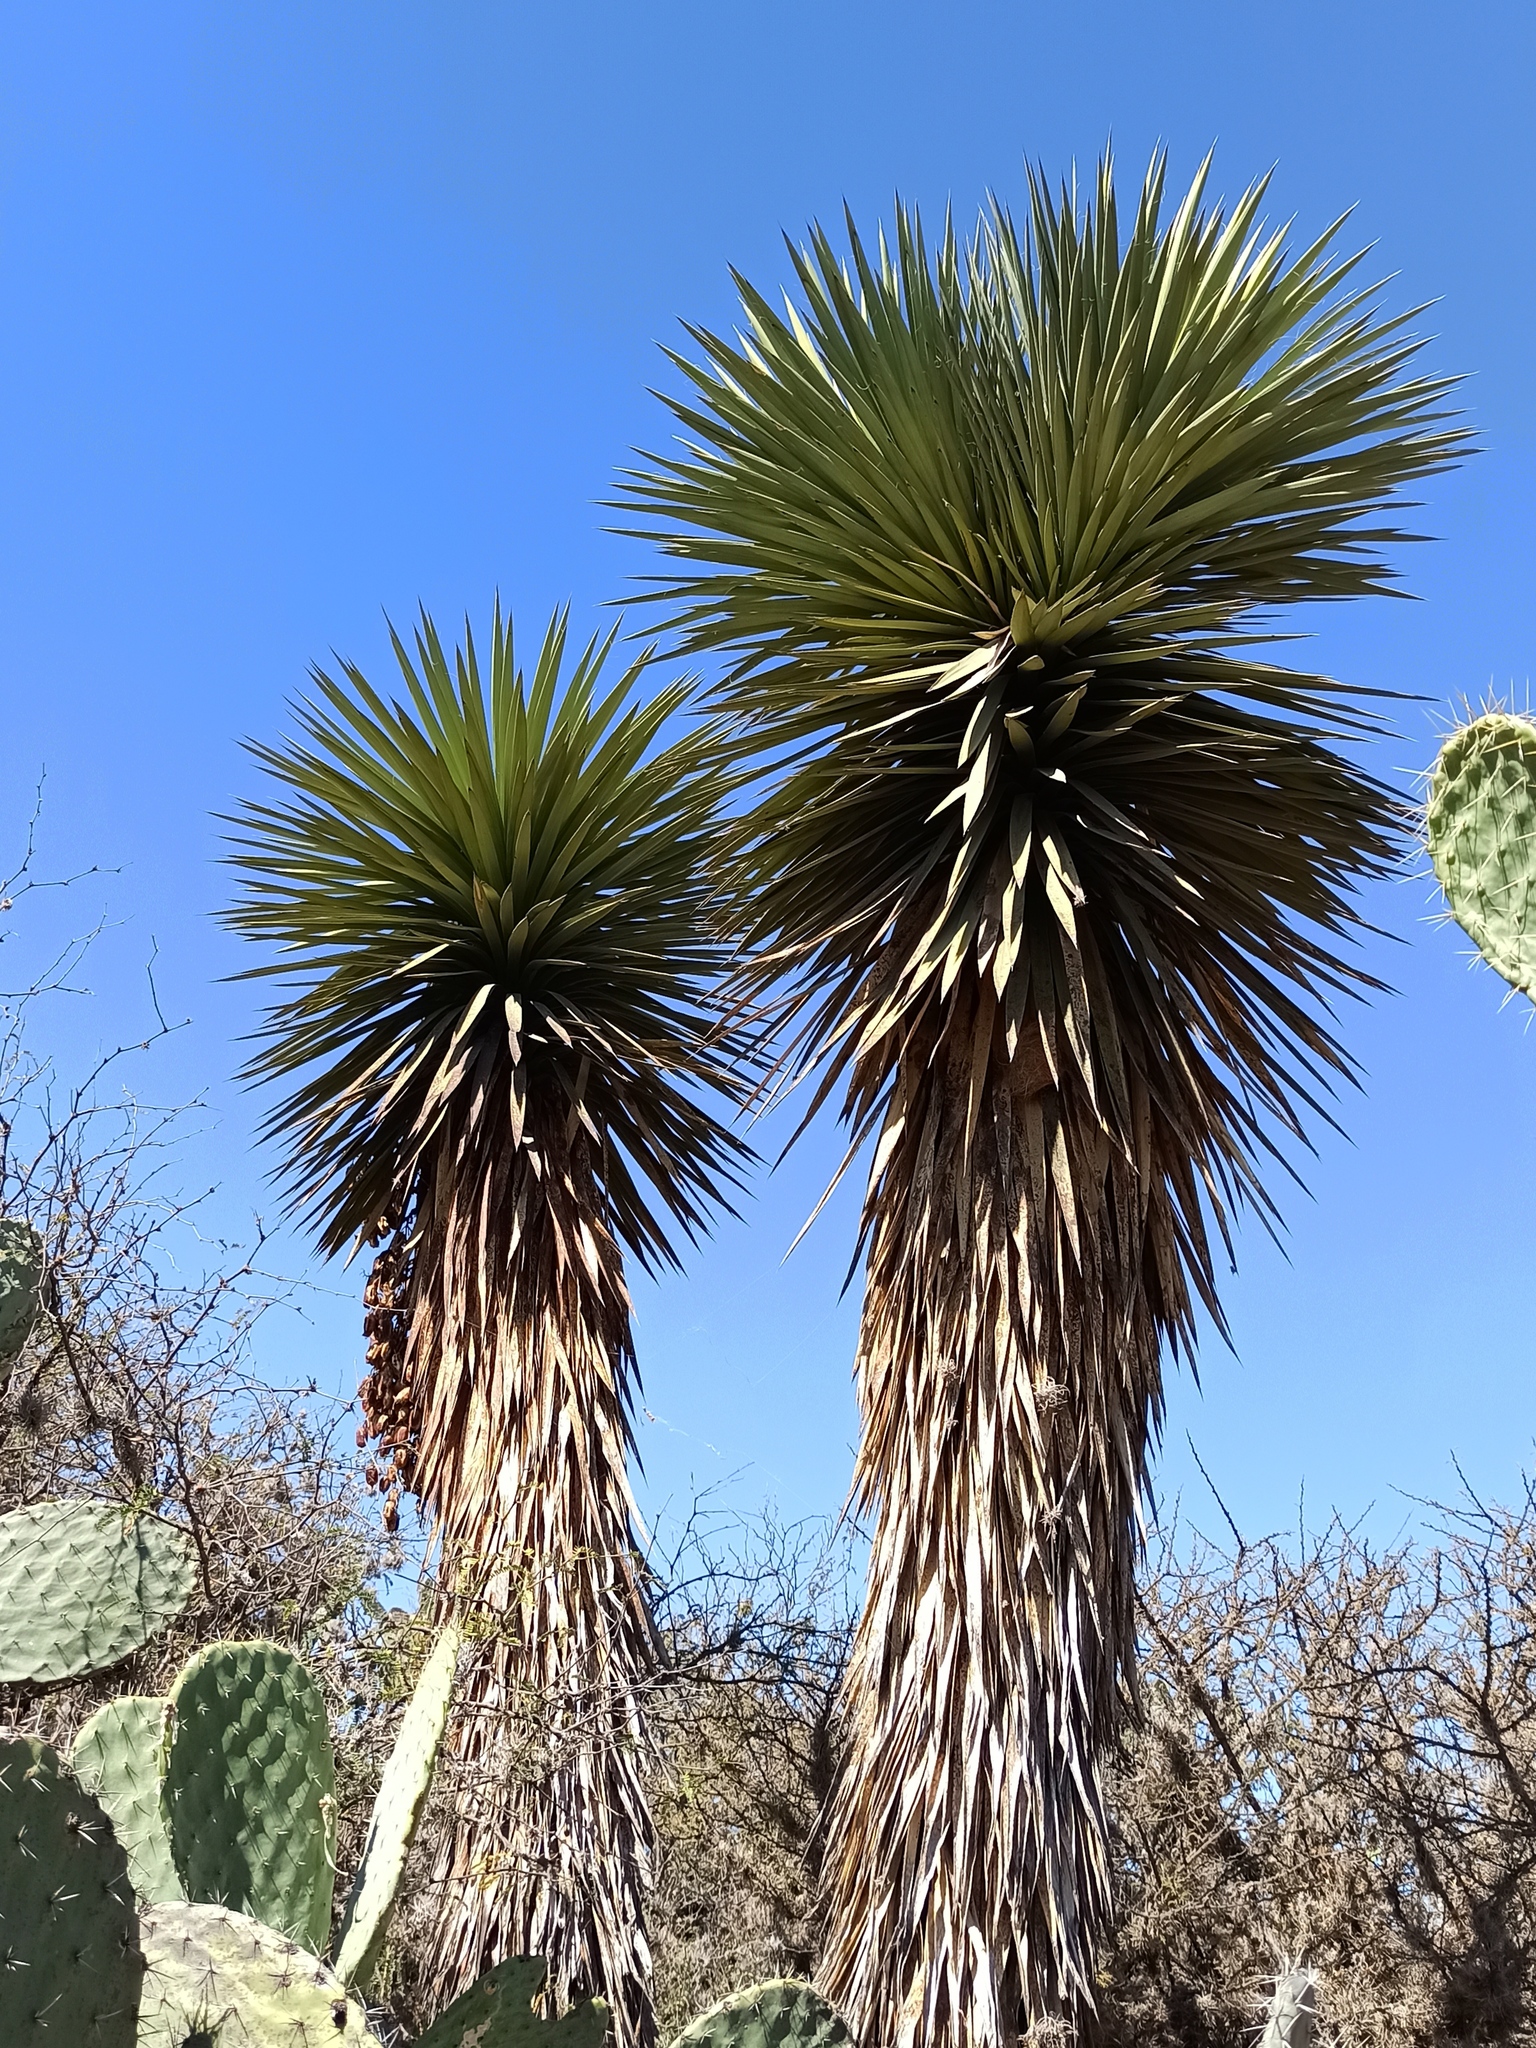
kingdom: Plantae
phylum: Tracheophyta
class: Liliopsida
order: Asparagales
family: Asparagaceae
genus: Yucca
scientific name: Yucca filifera
